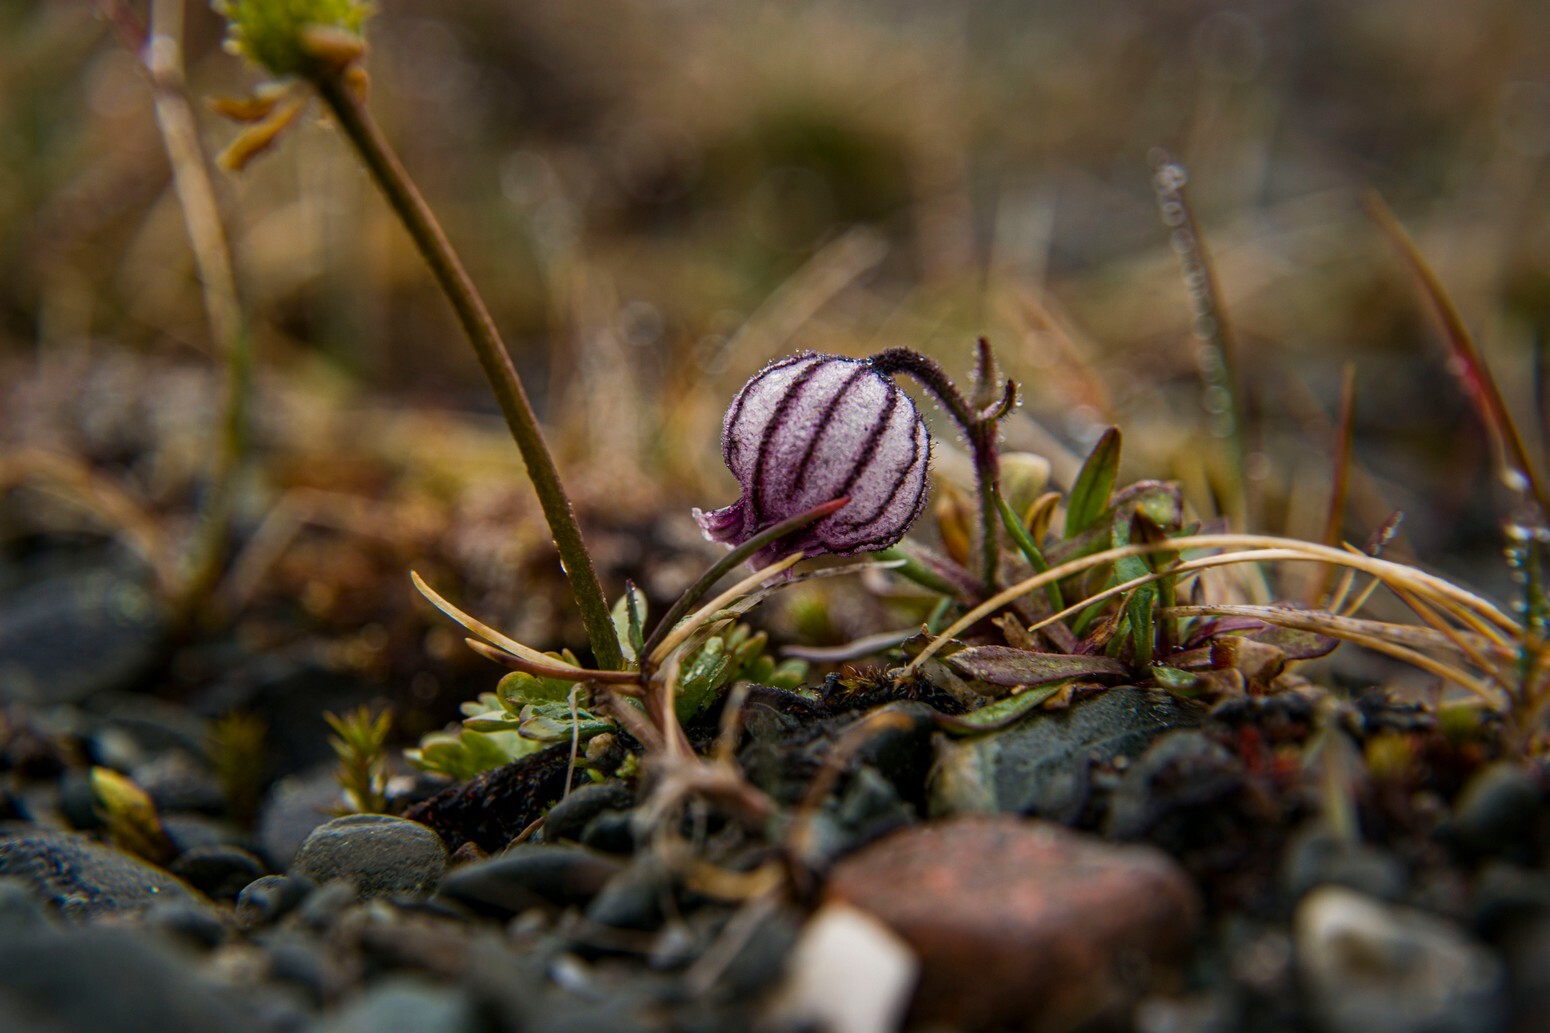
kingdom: Plantae
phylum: Tracheophyta
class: Magnoliopsida
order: Caryophyllales
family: Caryophyllaceae
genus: Silene
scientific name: Silene wahlbergella
